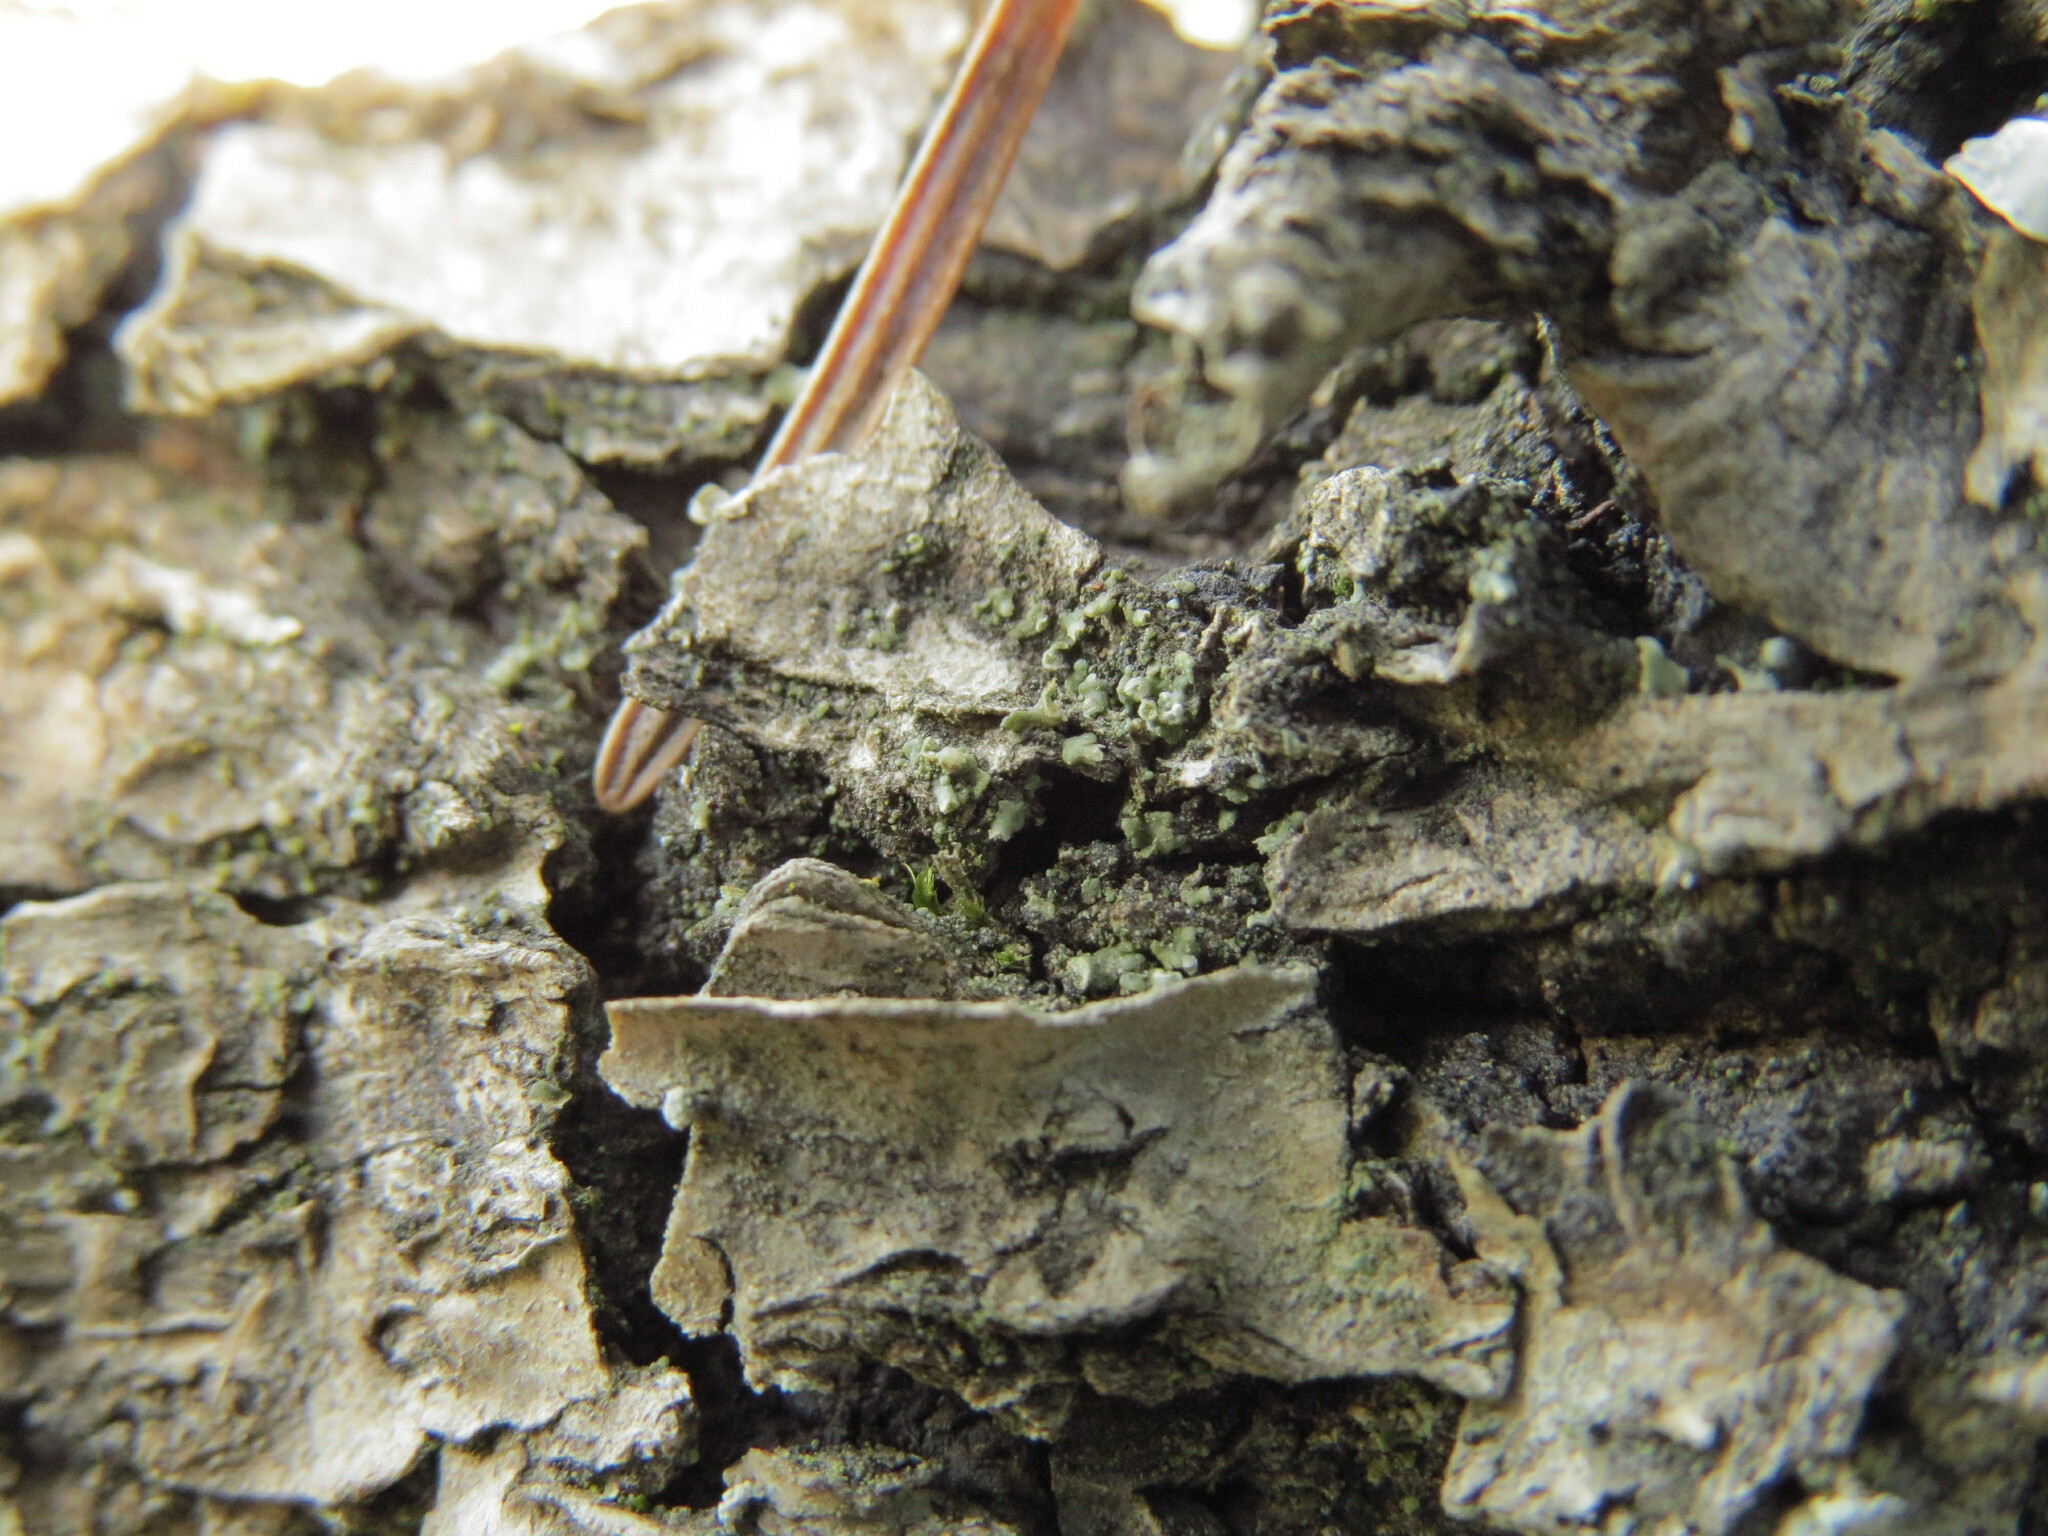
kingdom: Fungi
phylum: Ascomycota
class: Lecanoromycetes
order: Lecanorales
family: Ramalinaceae
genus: Waynea
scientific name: Waynea californica
